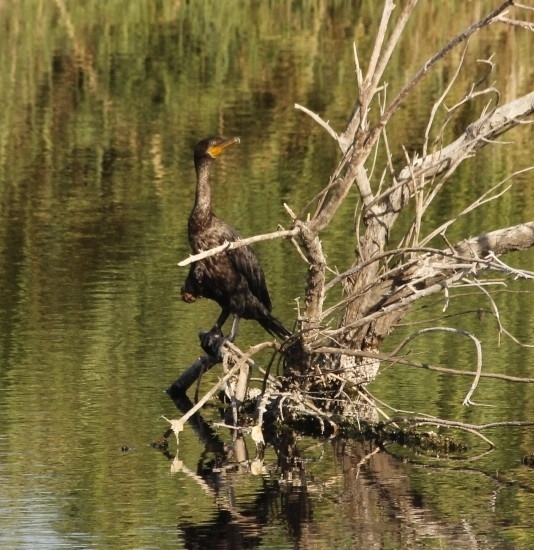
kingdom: Animalia
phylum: Chordata
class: Aves
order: Suliformes
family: Phalacrocoracidae
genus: Phalacrocorax
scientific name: Phalacrocorax auritus
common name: Double-crested cormorant
